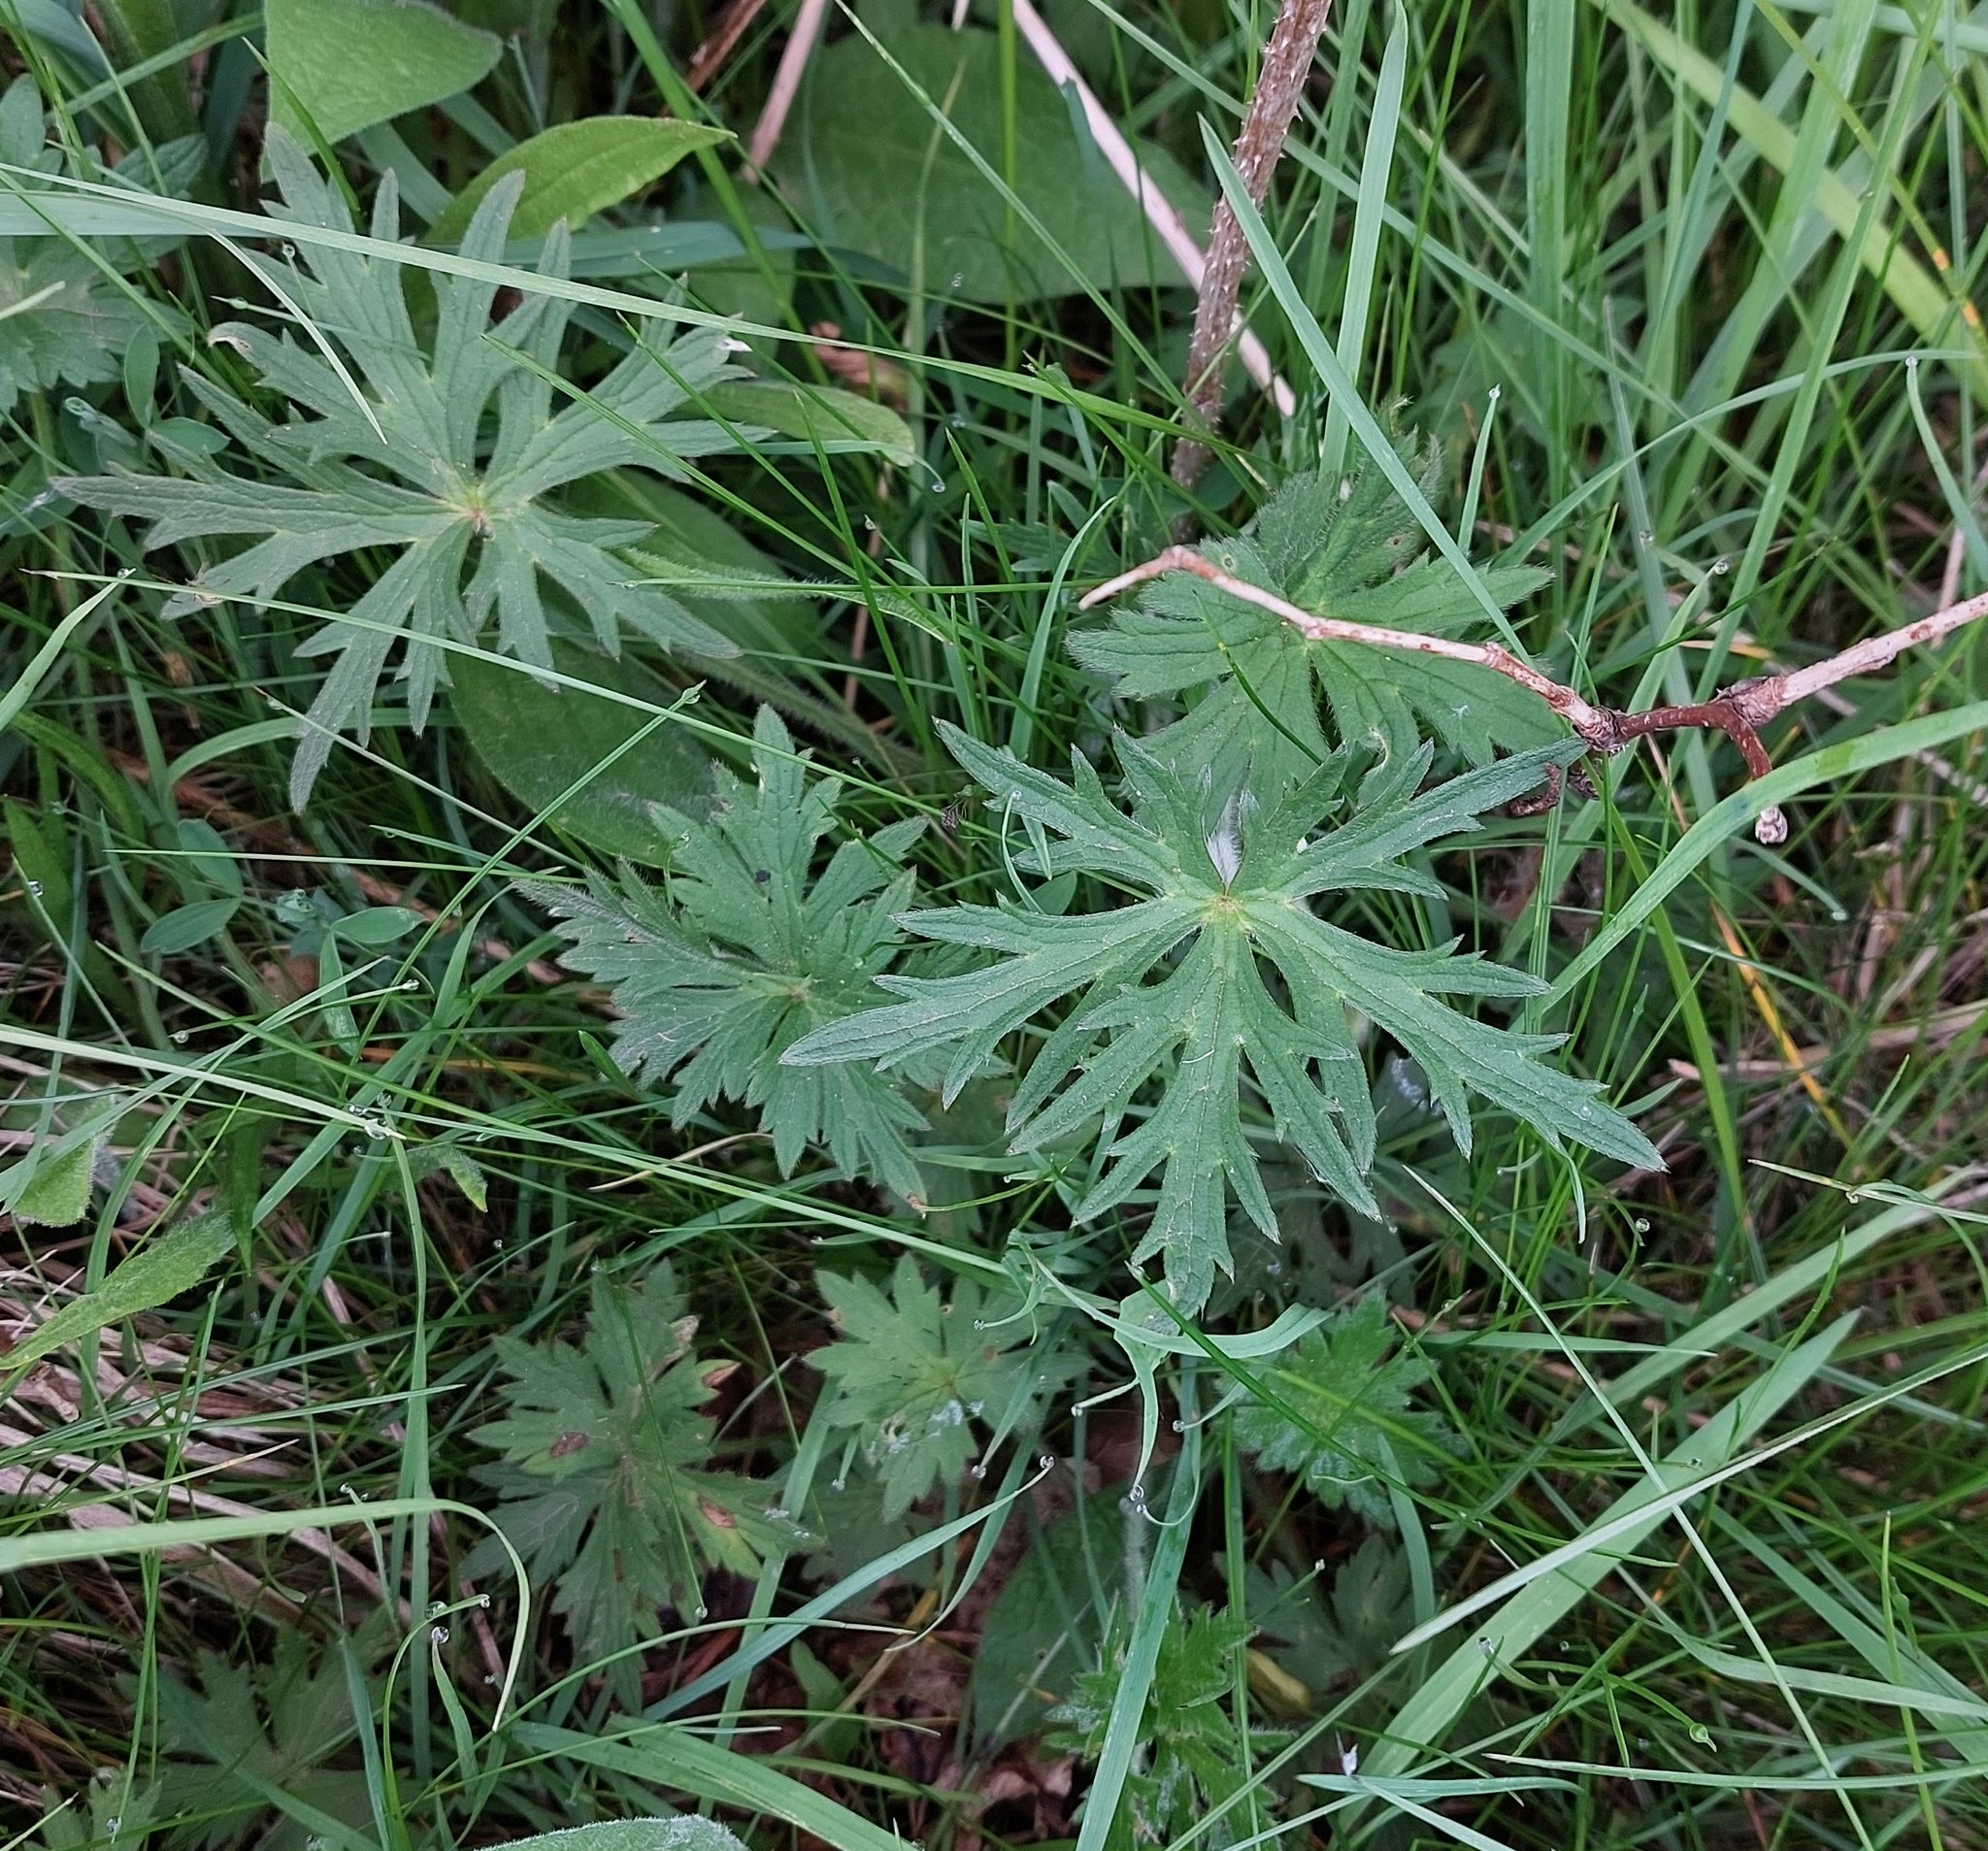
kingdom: Plantae
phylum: Tracheophyta
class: Magnoliopsida
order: Ranunculales
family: Ranunculaceae
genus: Ranunculus
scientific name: Ranunculus acris
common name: Meadow buttercup
